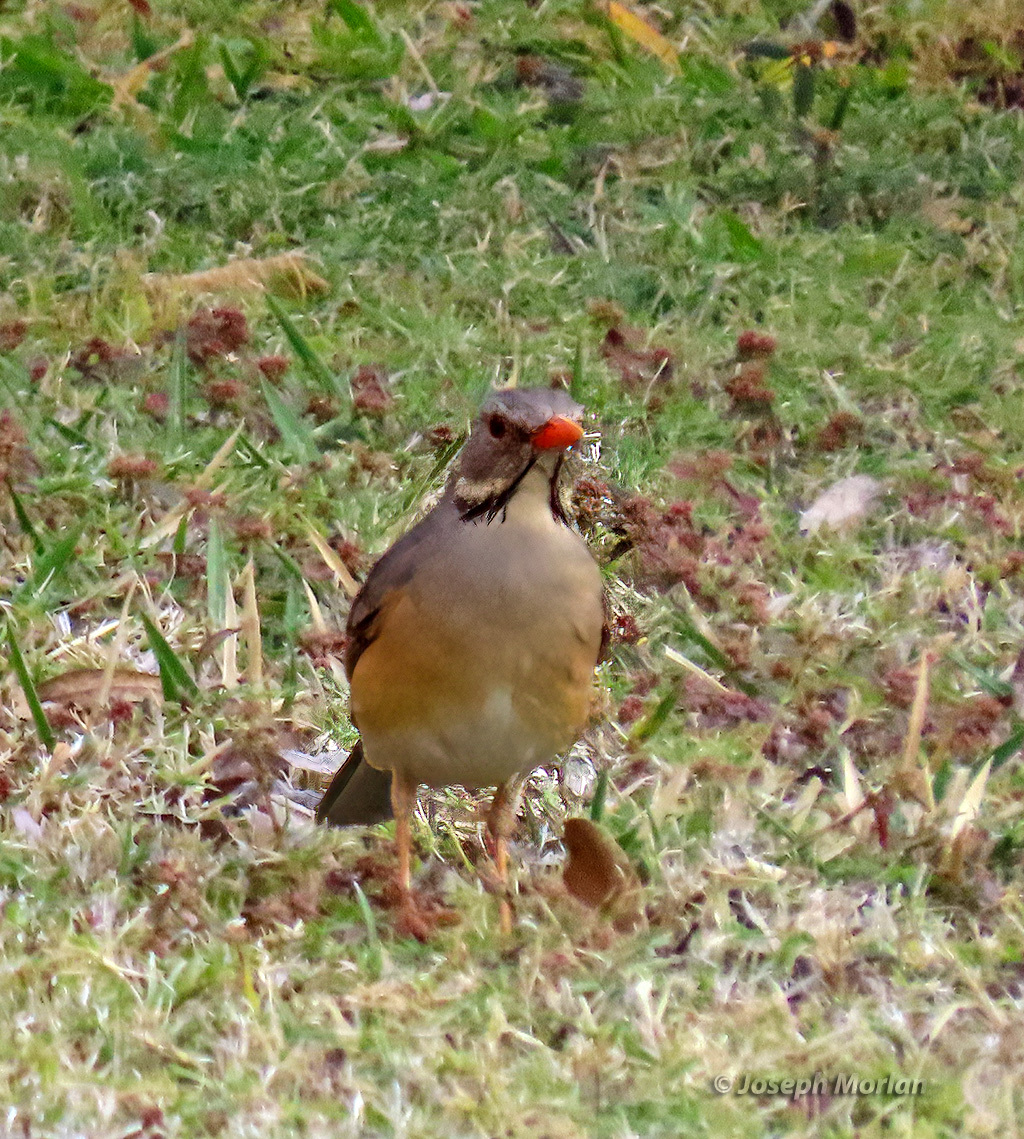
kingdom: Animalia
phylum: Chordata
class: Aves
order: Passeriformes
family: Turdidae
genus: Turdus
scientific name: Turdus libonyana
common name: Kurrichane thrush
